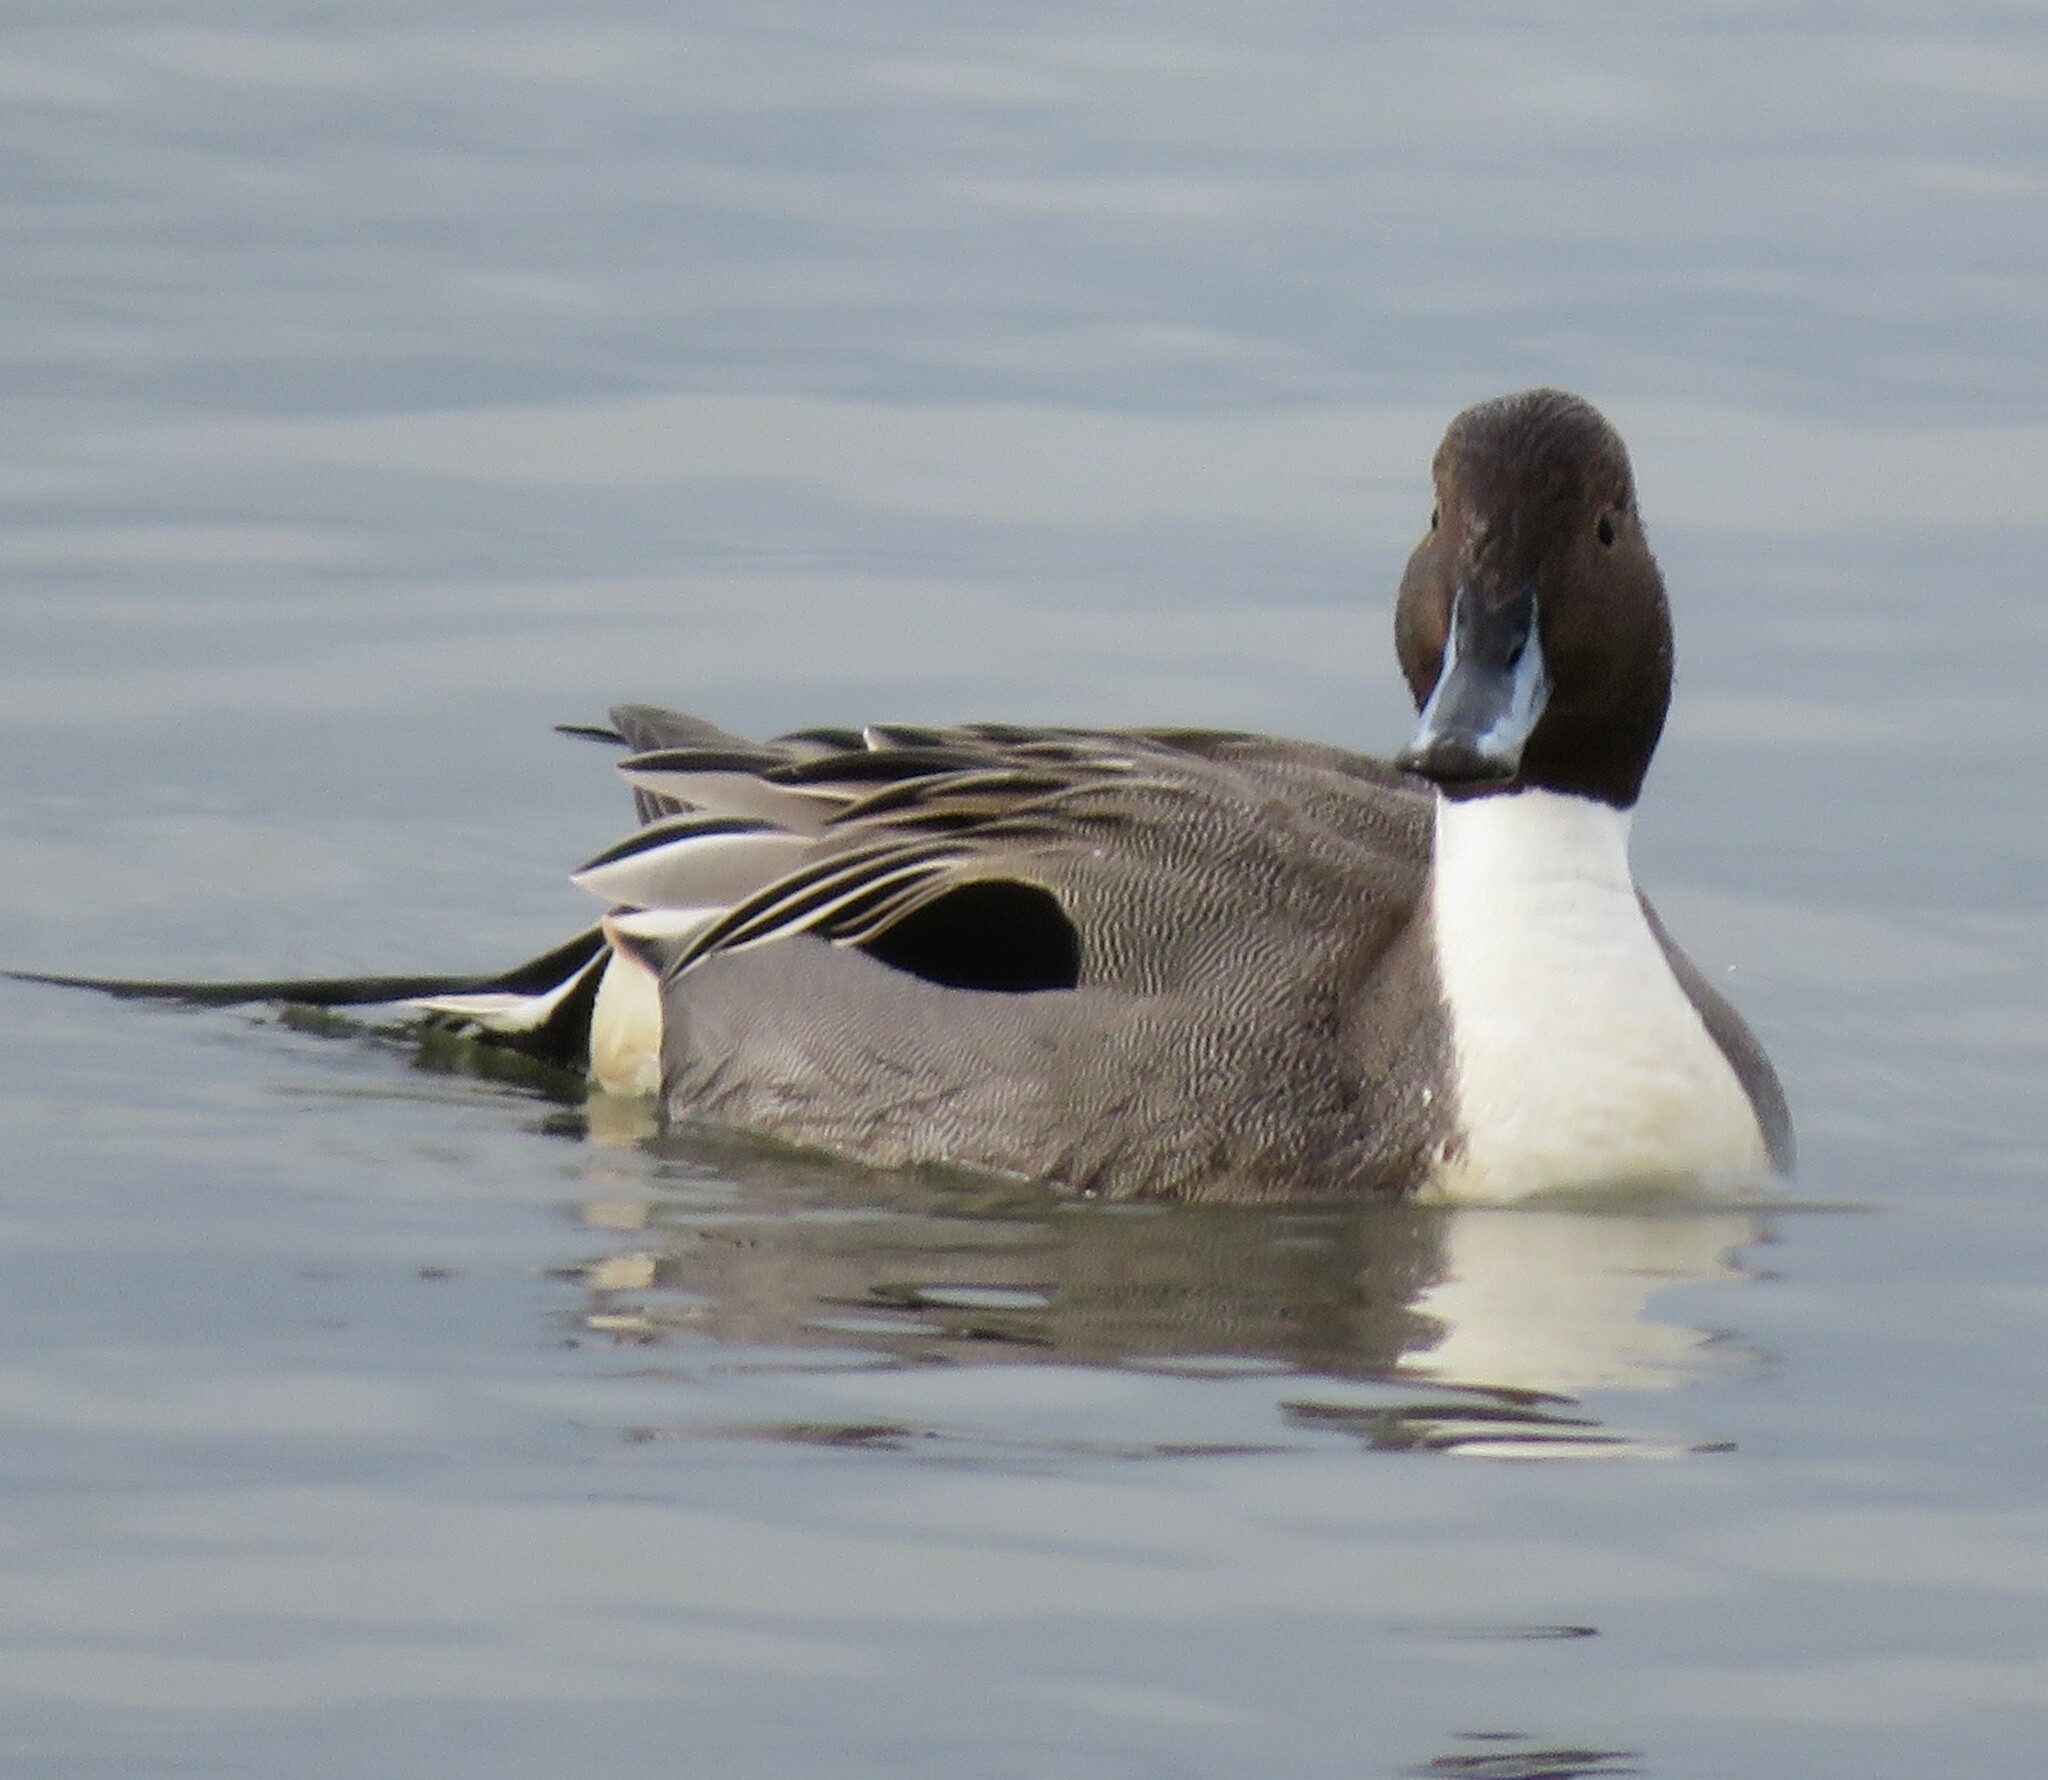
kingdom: Animalia
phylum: Chordata
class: Aves
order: Anseriformes
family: Anatidae
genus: Anas
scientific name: Anas acuta
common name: Northern pintail
